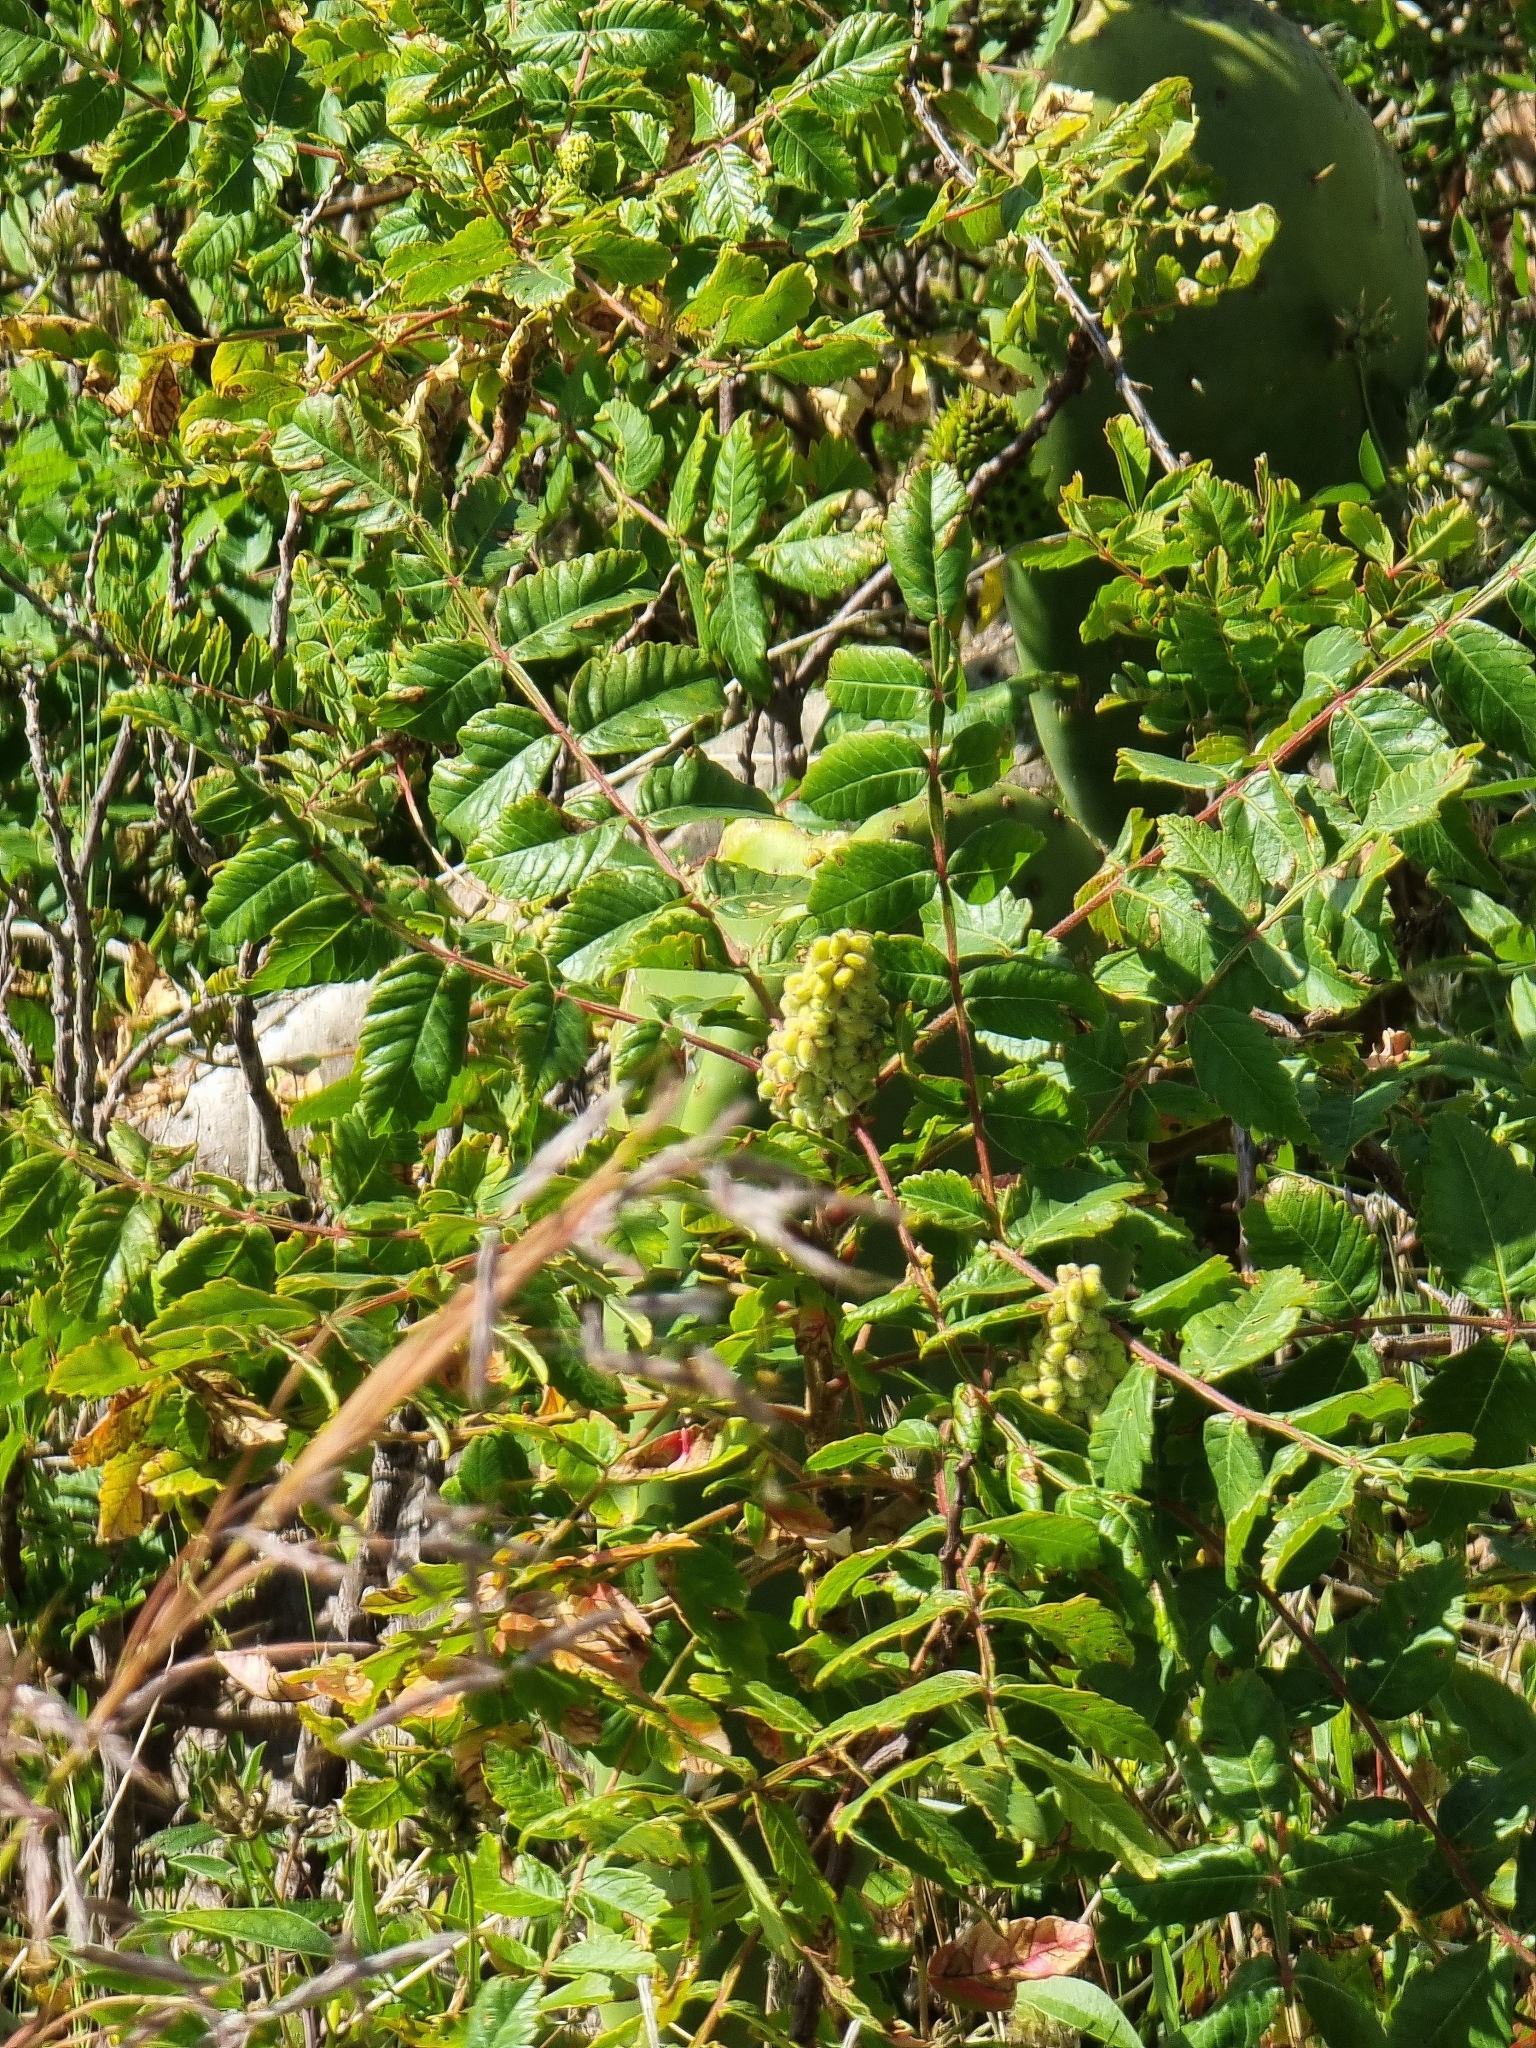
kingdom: Plantae
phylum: Tracheophyta
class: Magnoliopsida
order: Sapindales
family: Anacardiaceae
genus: Rhus
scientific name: Rhus coriaria
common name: Tanner's sumach
